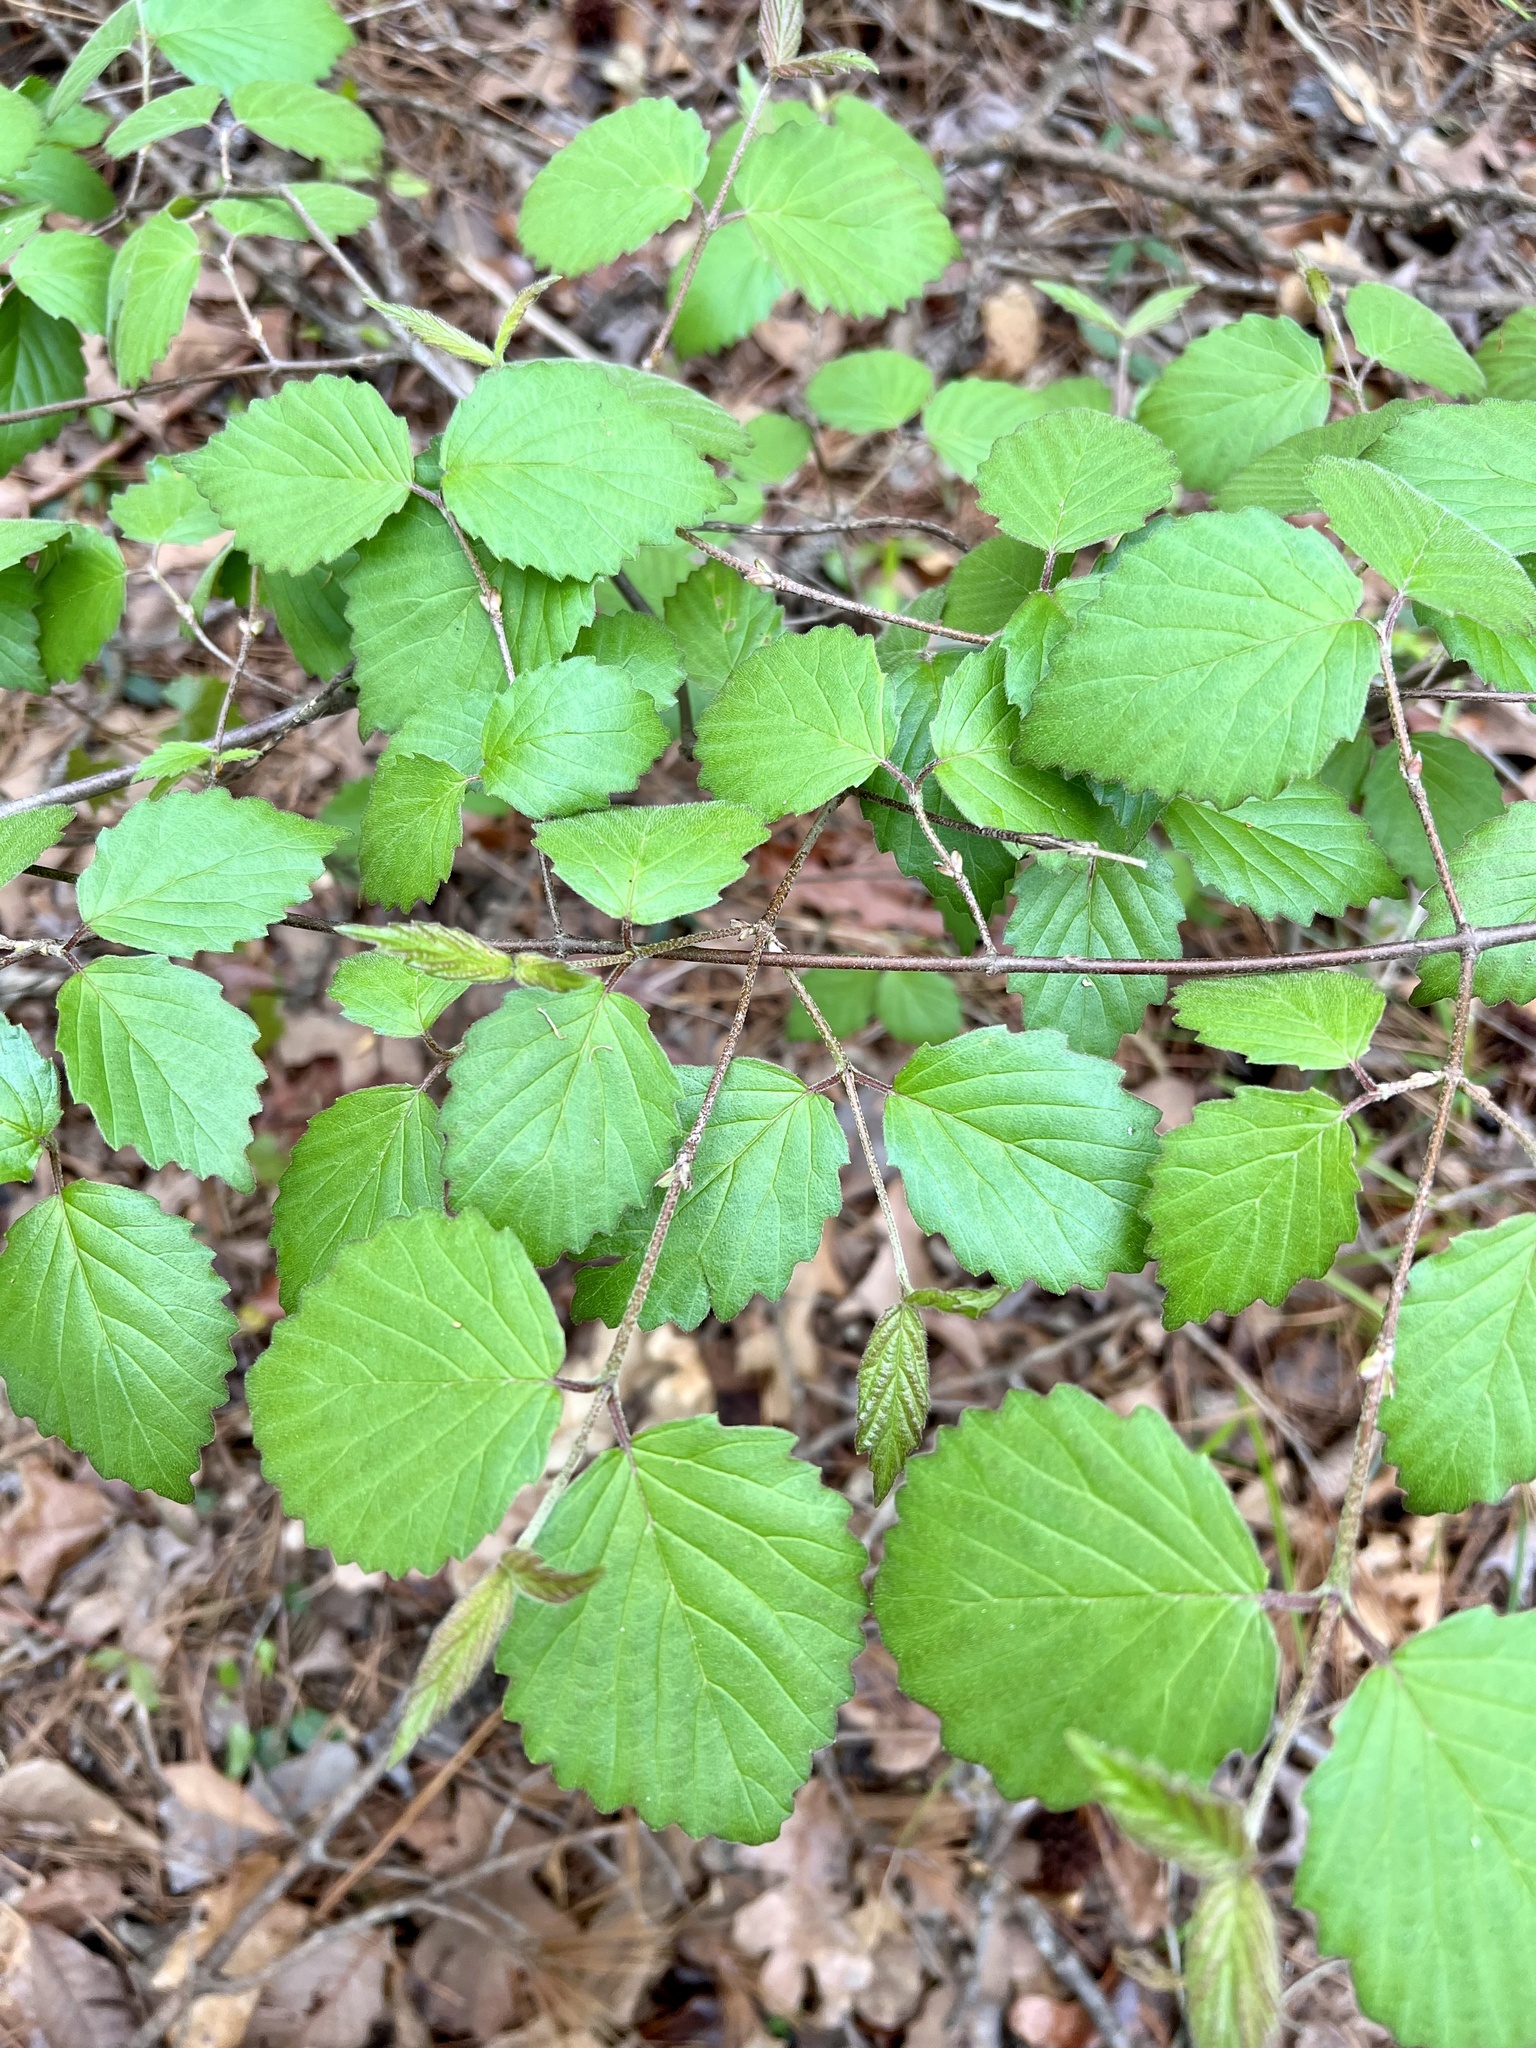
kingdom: Plantae
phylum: Tracheophyta
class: Magnoliopsida
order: Dipsacales
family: Viburnaceae
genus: Viburnum
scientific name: Viburnum scabrellum
